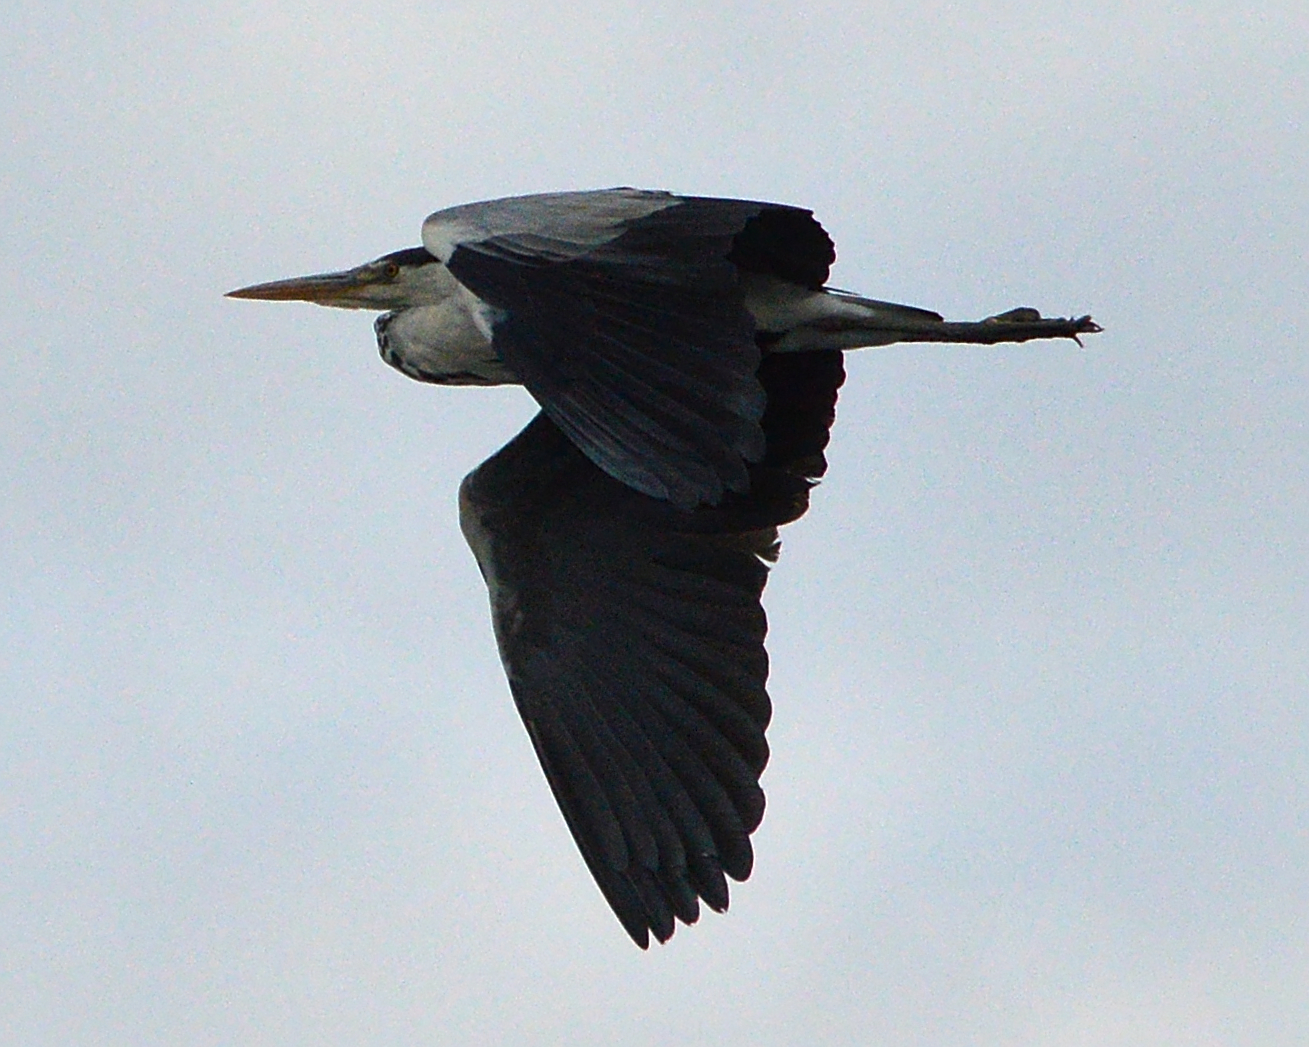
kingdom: Animalia
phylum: Chordata
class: Aves
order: Pelecaniformes
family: Ardeidae
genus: Ardea
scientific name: Ardea cinerea
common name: Grey heron
